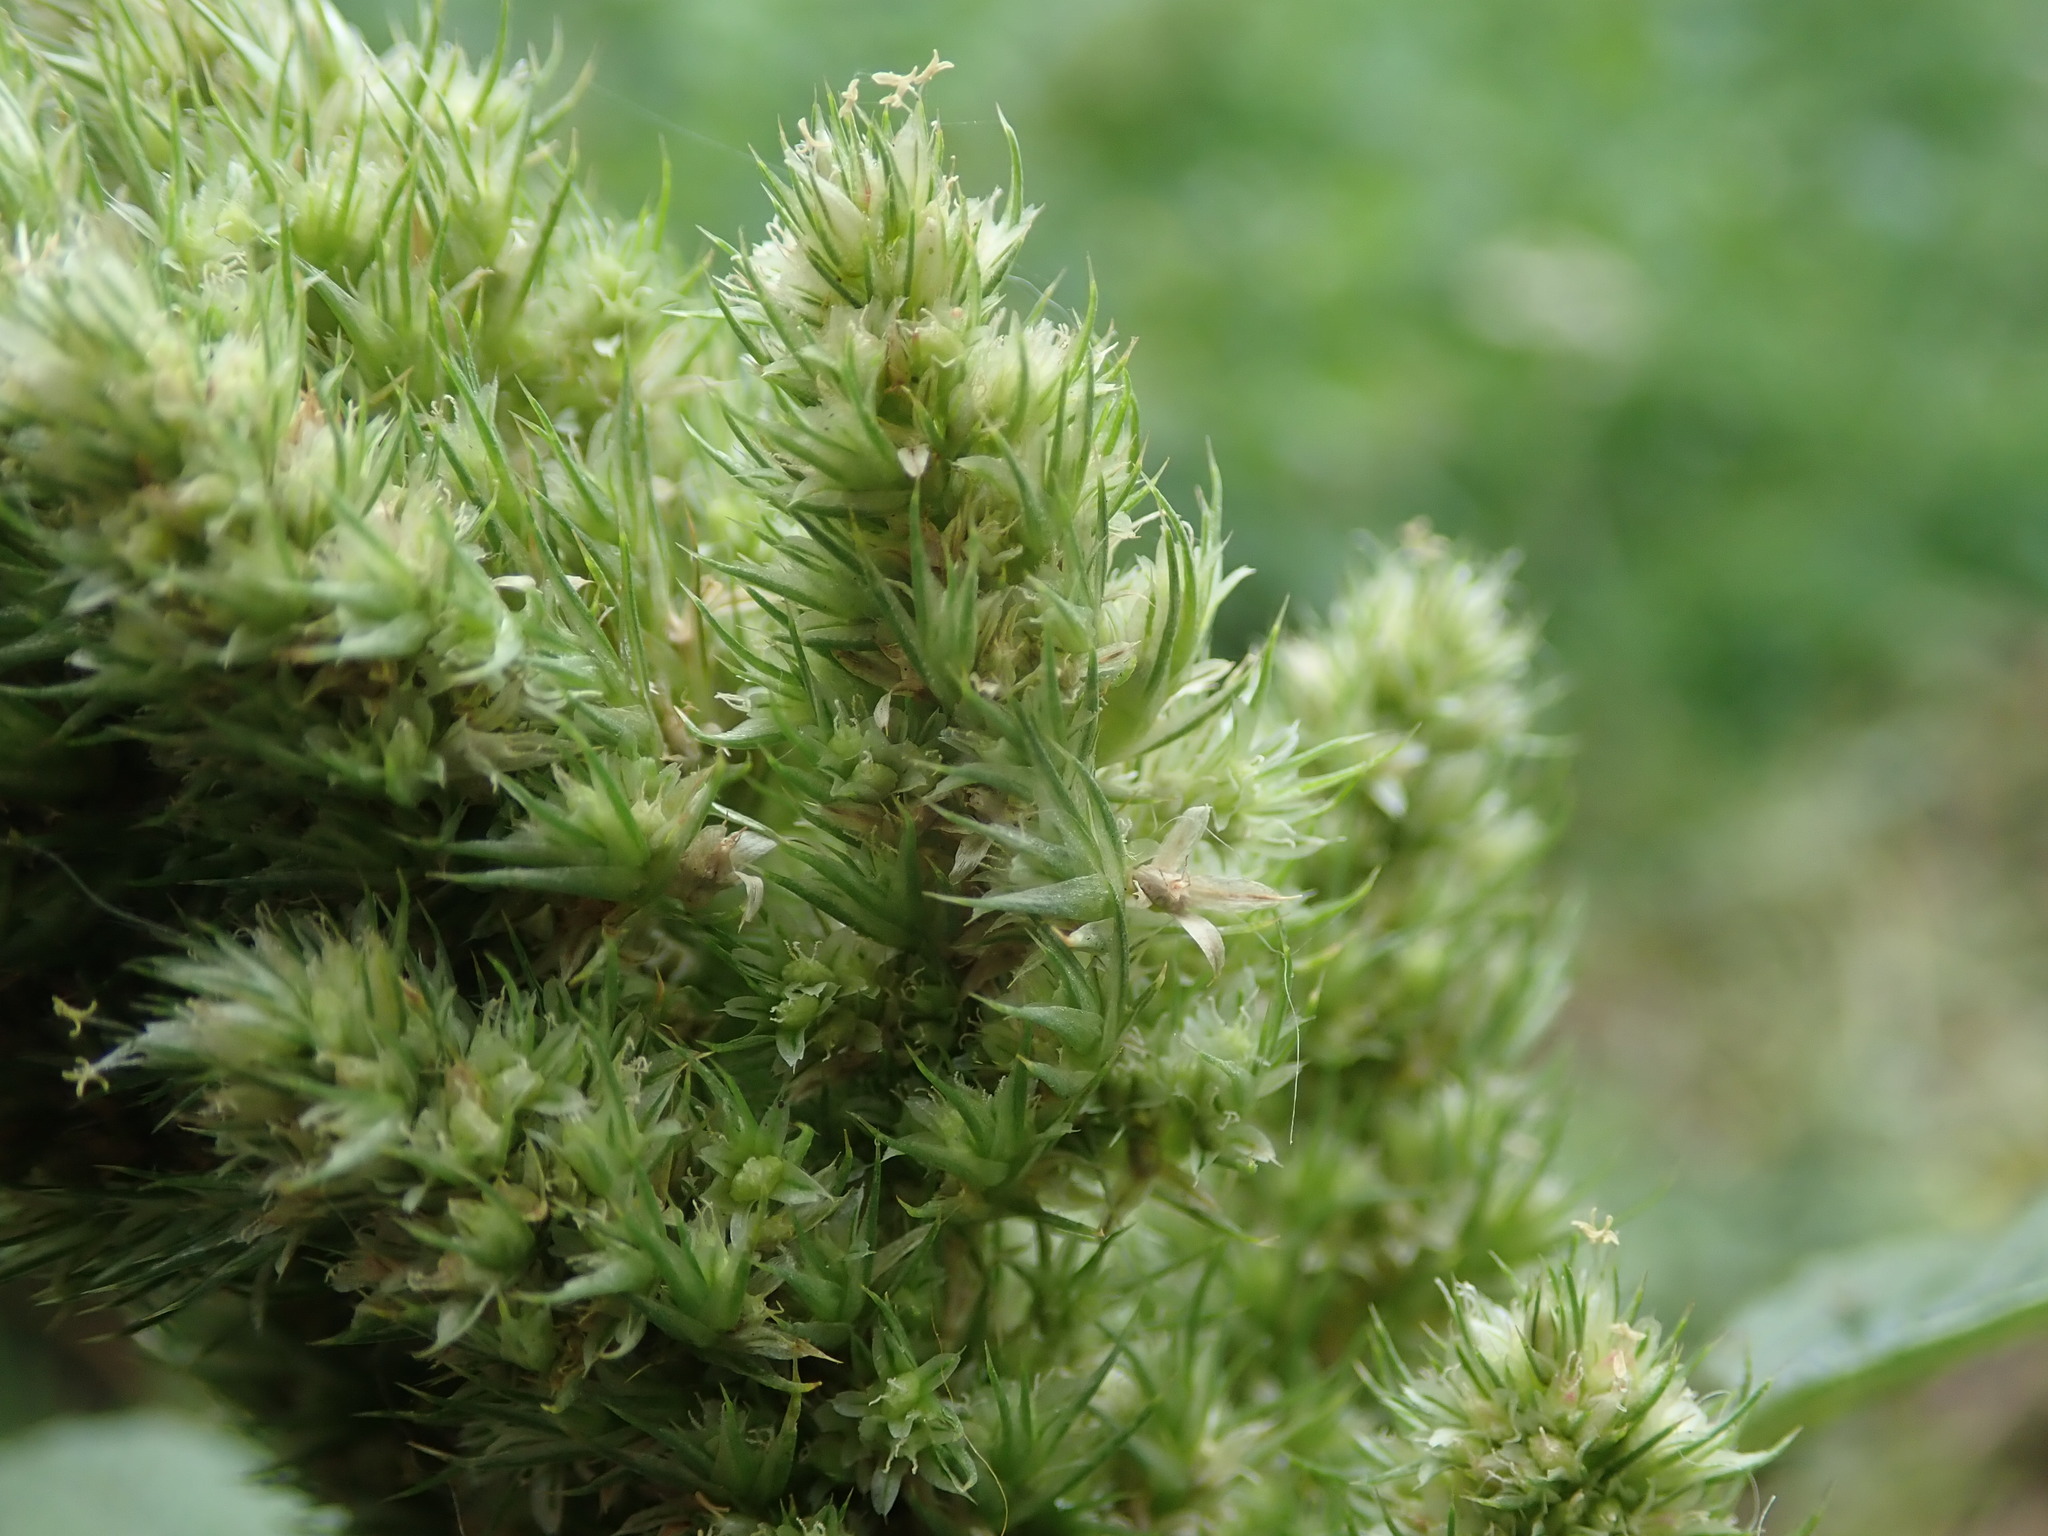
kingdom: Plantae
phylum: Tracheophyta
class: Magnoliopsida
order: Caryophyllales
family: Amaranthaceae
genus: Amaranthus
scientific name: Amaranthus retroflexus
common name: Redroot amaranth
